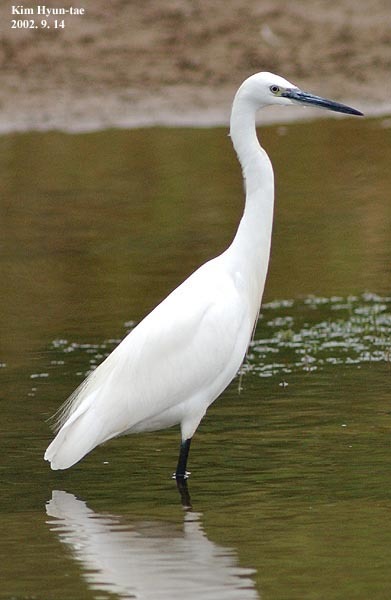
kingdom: Animalia
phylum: Chordata
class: Aves
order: Pelecaniformes
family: Ardeidae
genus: Egretta
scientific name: Egretta garzetta
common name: Little egret
